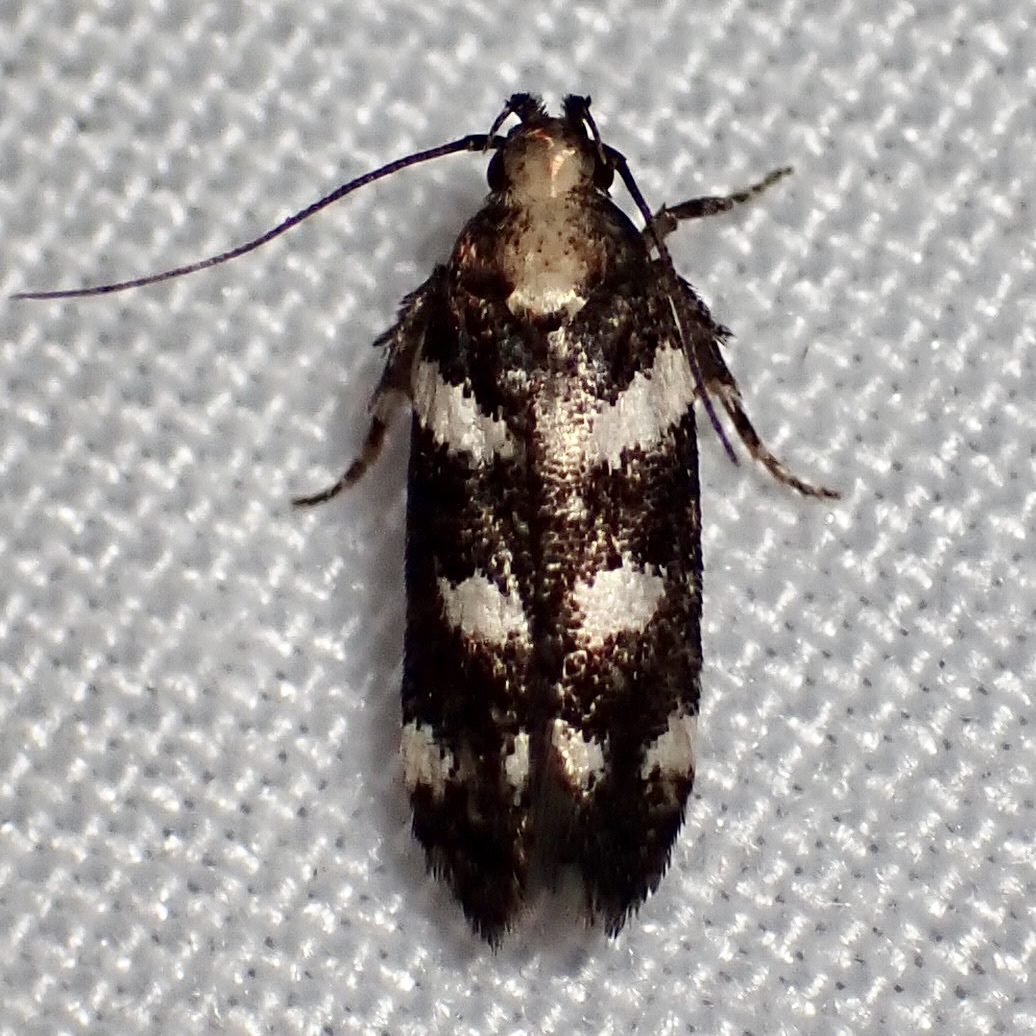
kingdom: Animalia
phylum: Arthropoda
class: Insecta
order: Lepidoptera
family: Gelechiidae
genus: Filatima
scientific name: Filatima arizonella
